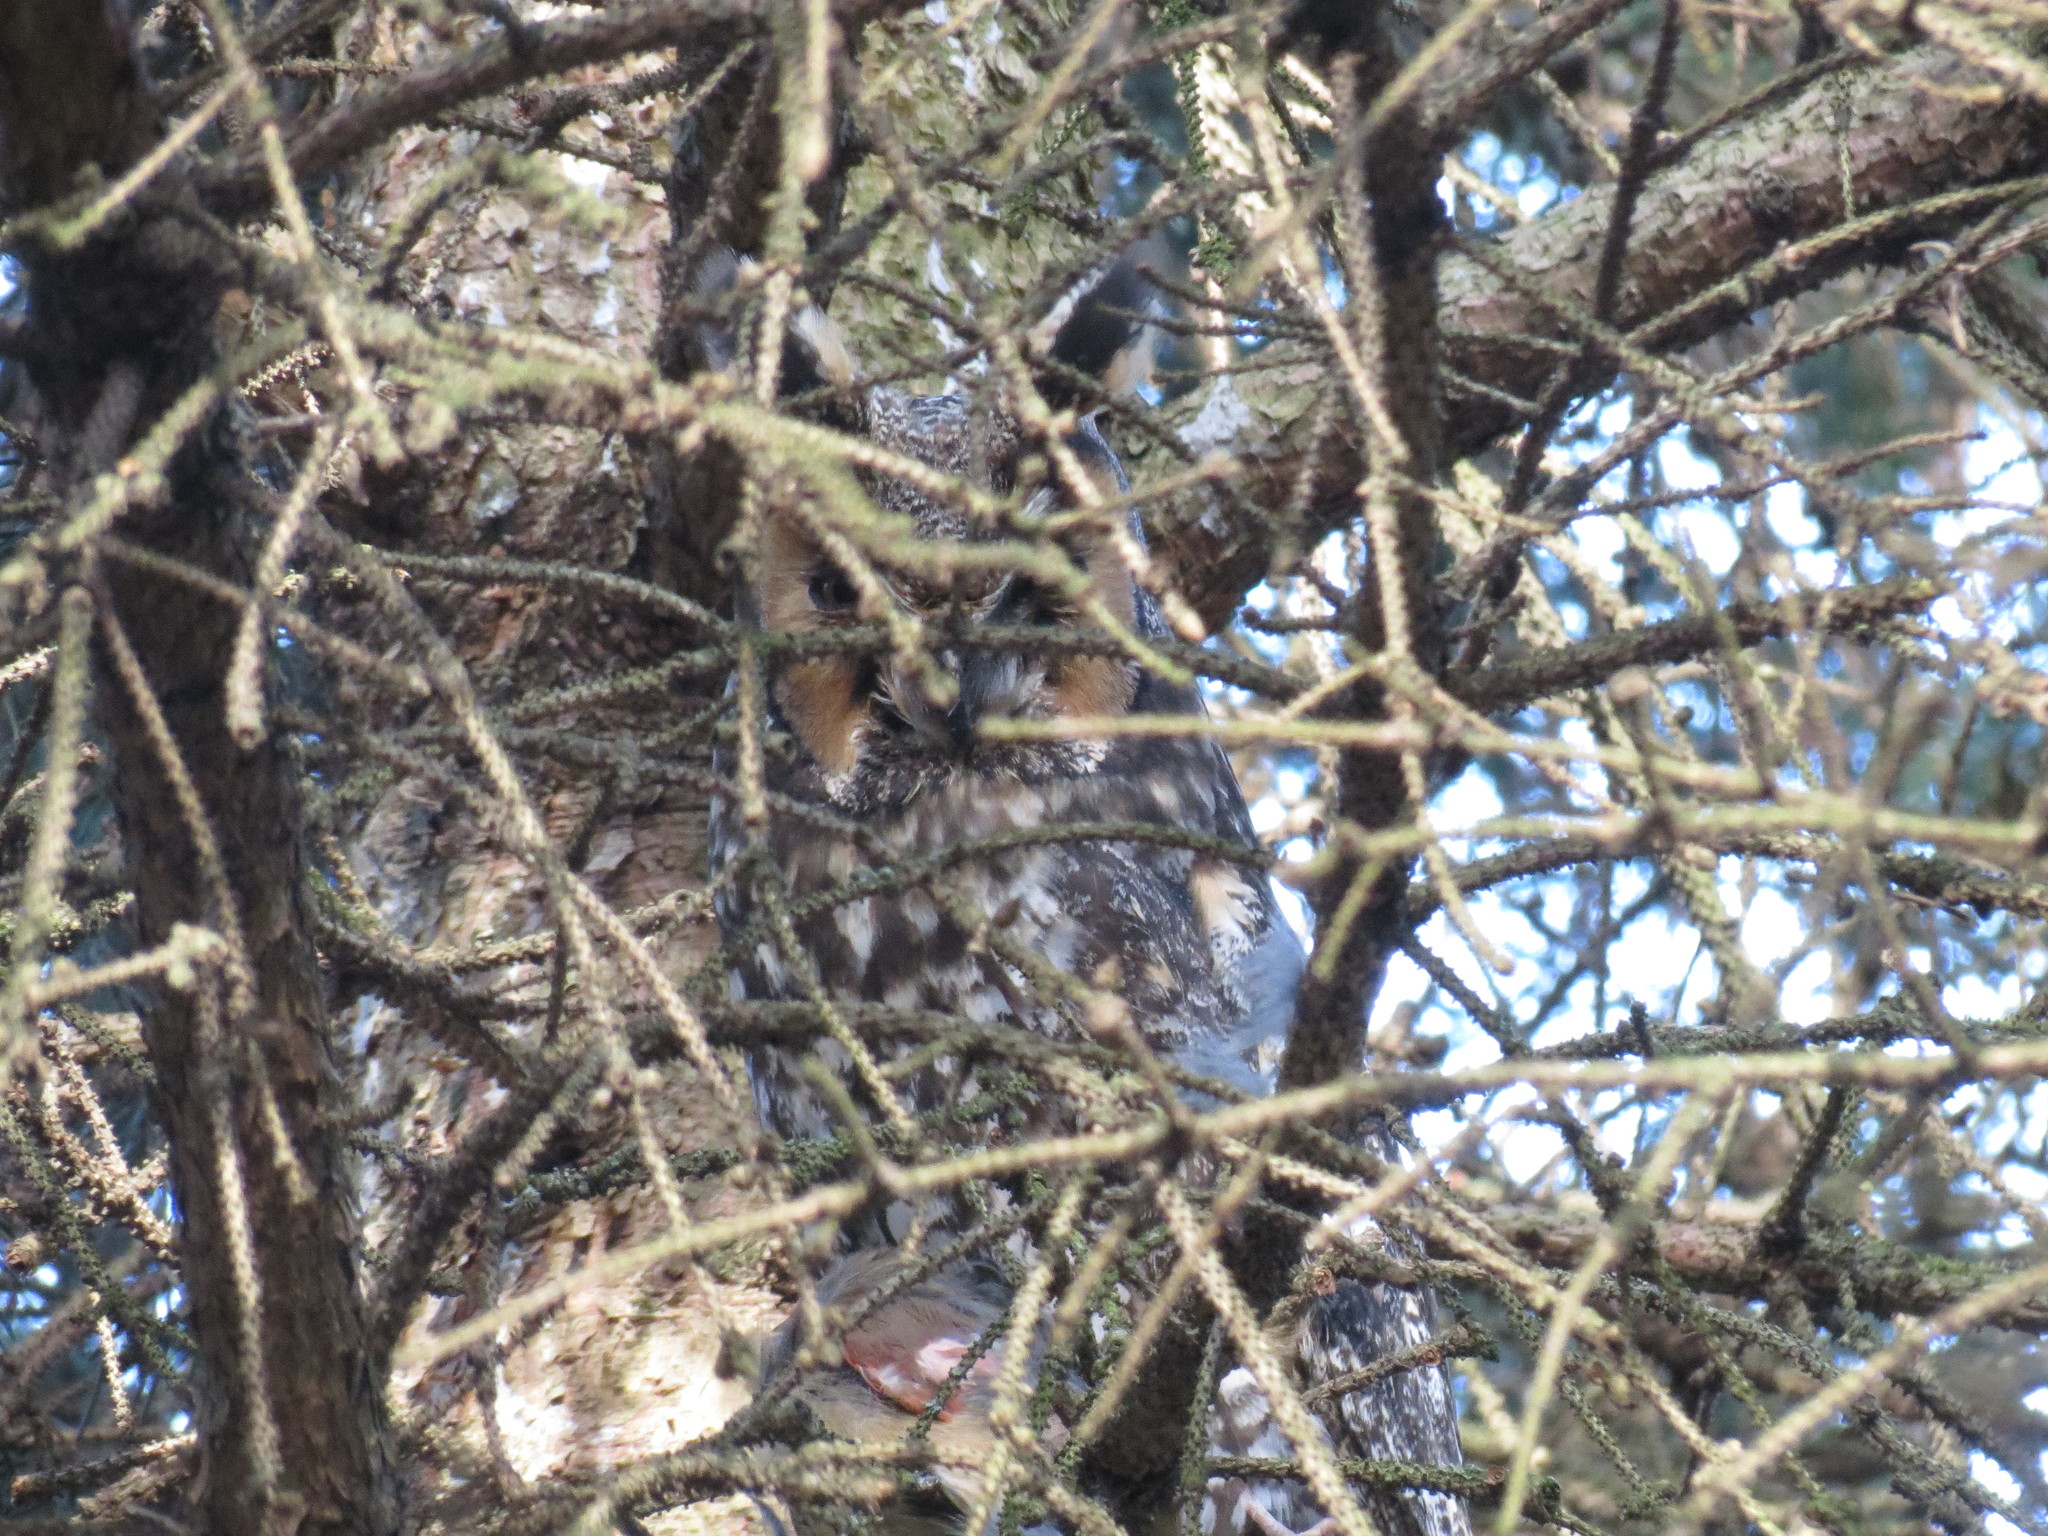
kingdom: Animalia
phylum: Chordata
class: Aves
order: Strigiformes
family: Strigidae
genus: Asio
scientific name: Asio otus
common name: Long-eared owl
